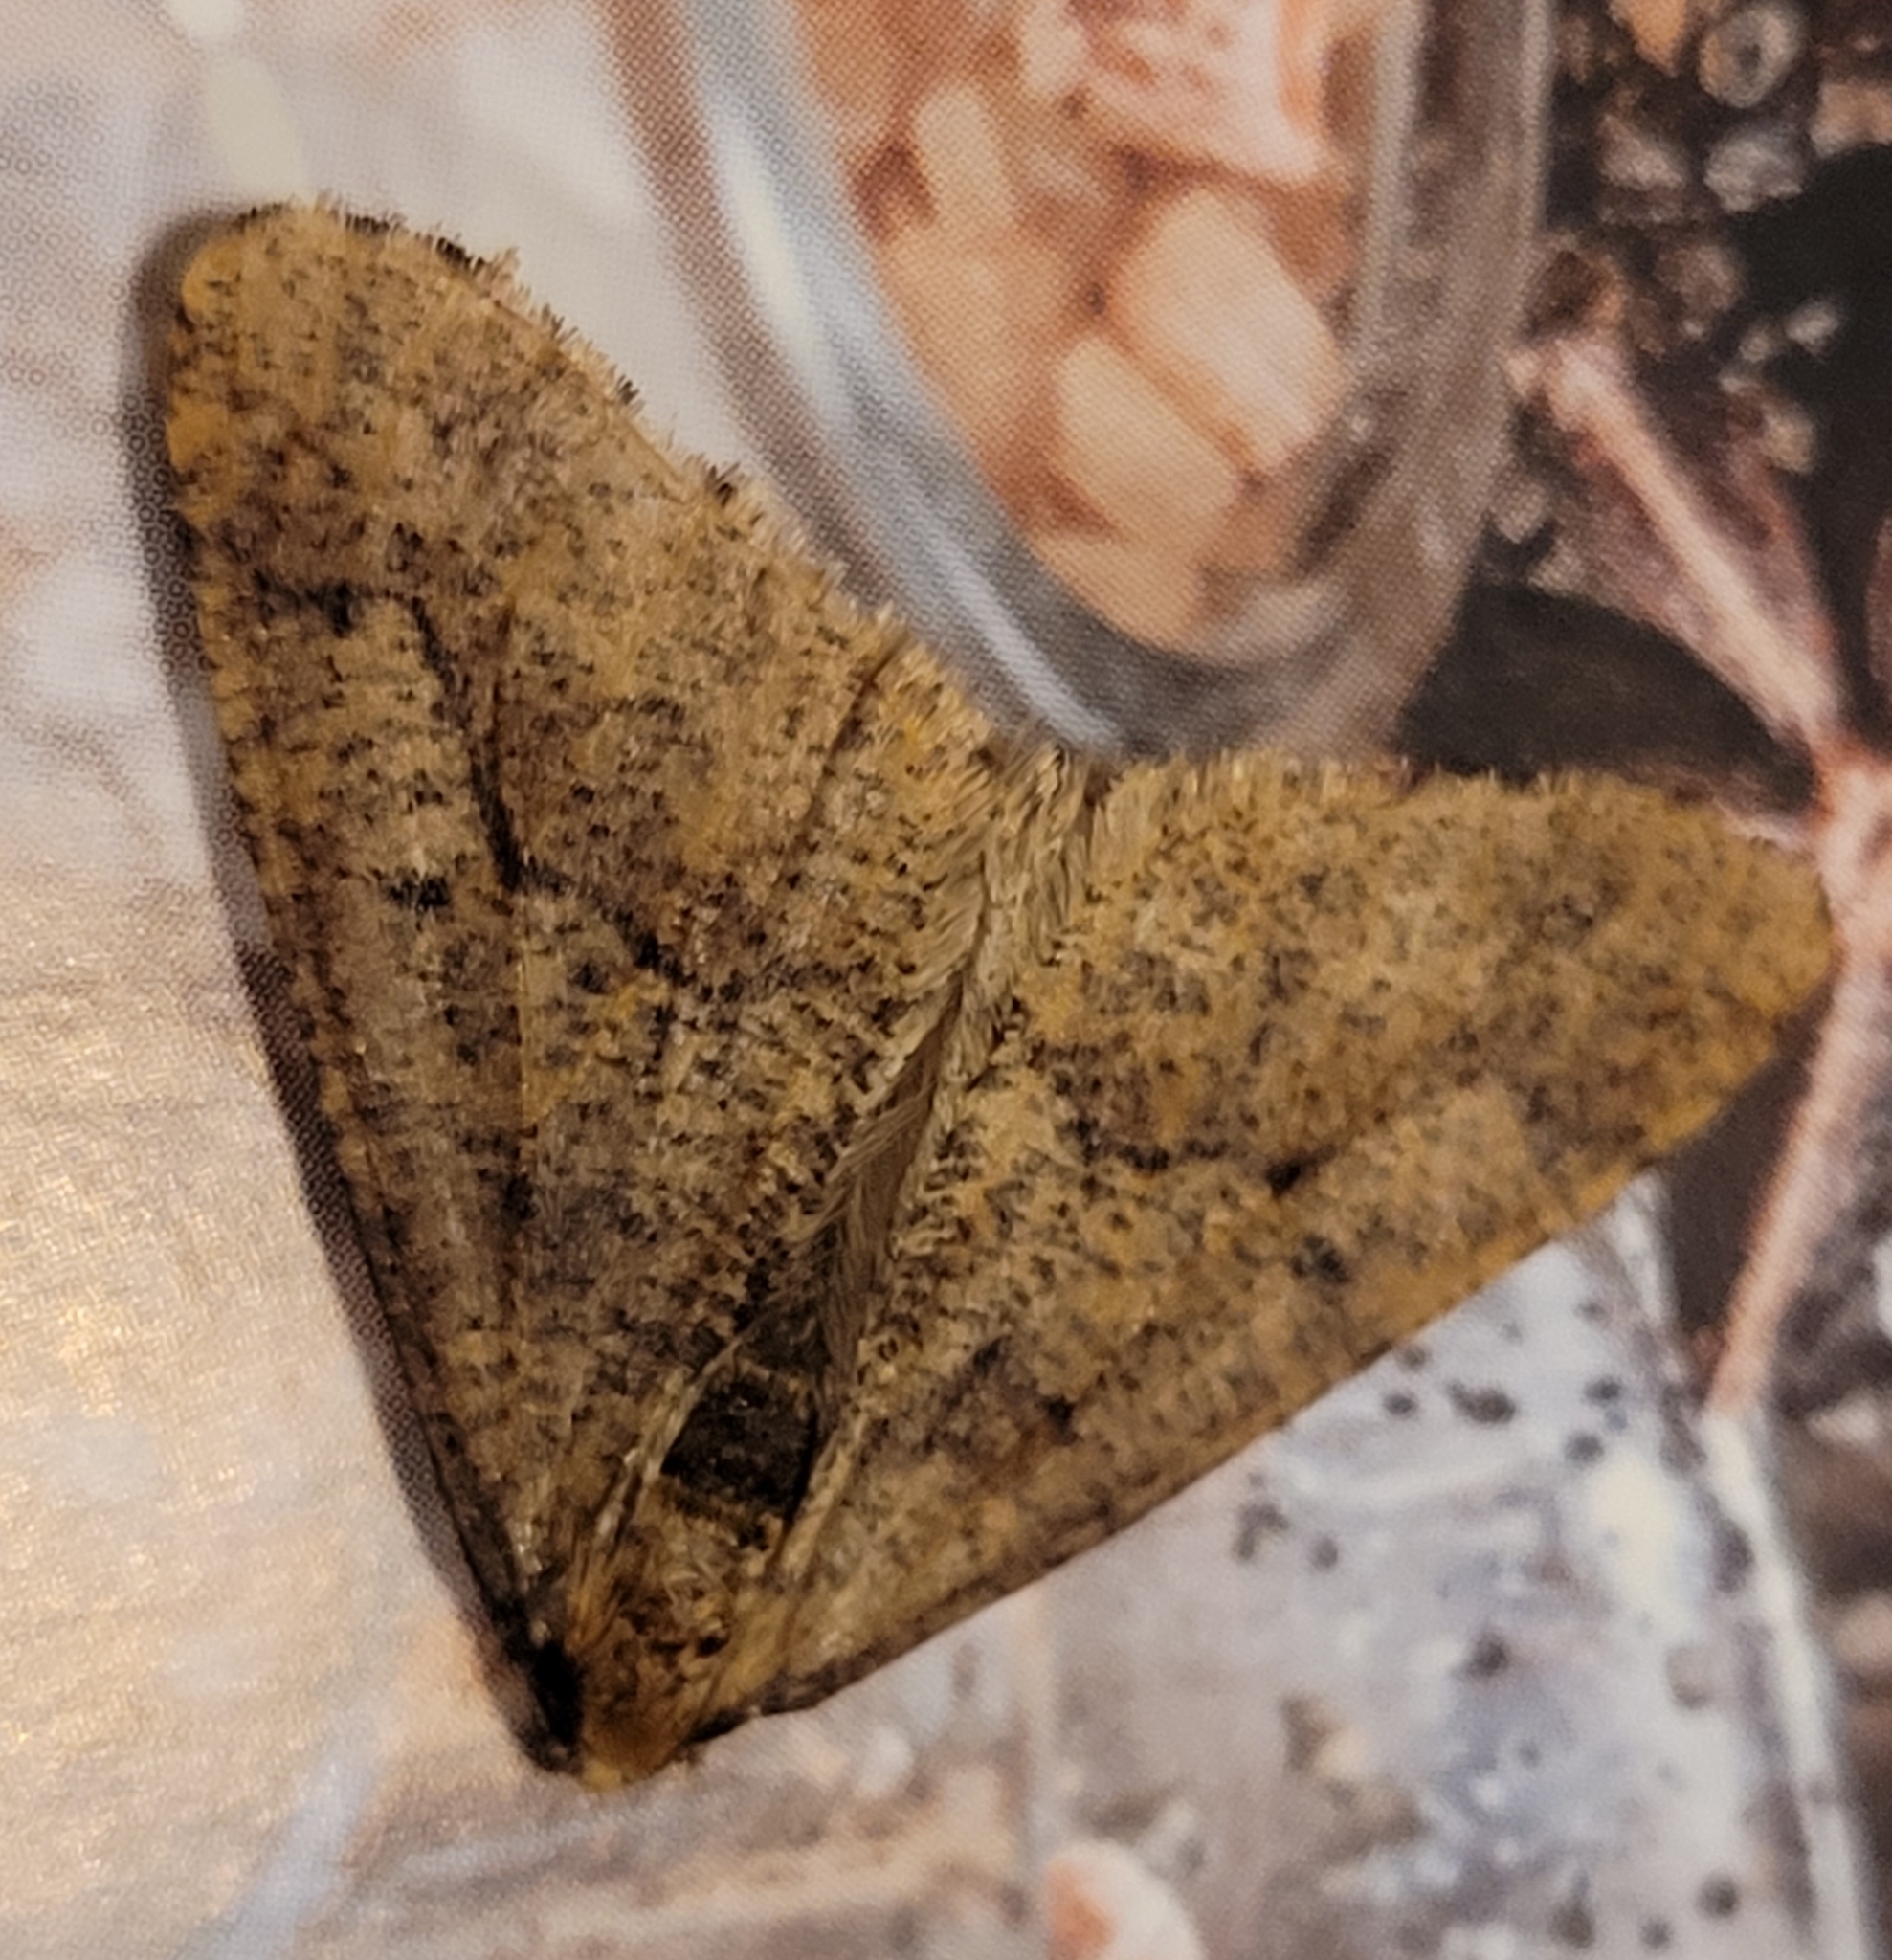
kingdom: Animalia
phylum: Arthropoda
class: Insecta
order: Lepidoptera
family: Geometridae
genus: Erannis
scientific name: Erannis defoliaria
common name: Mottled umber
